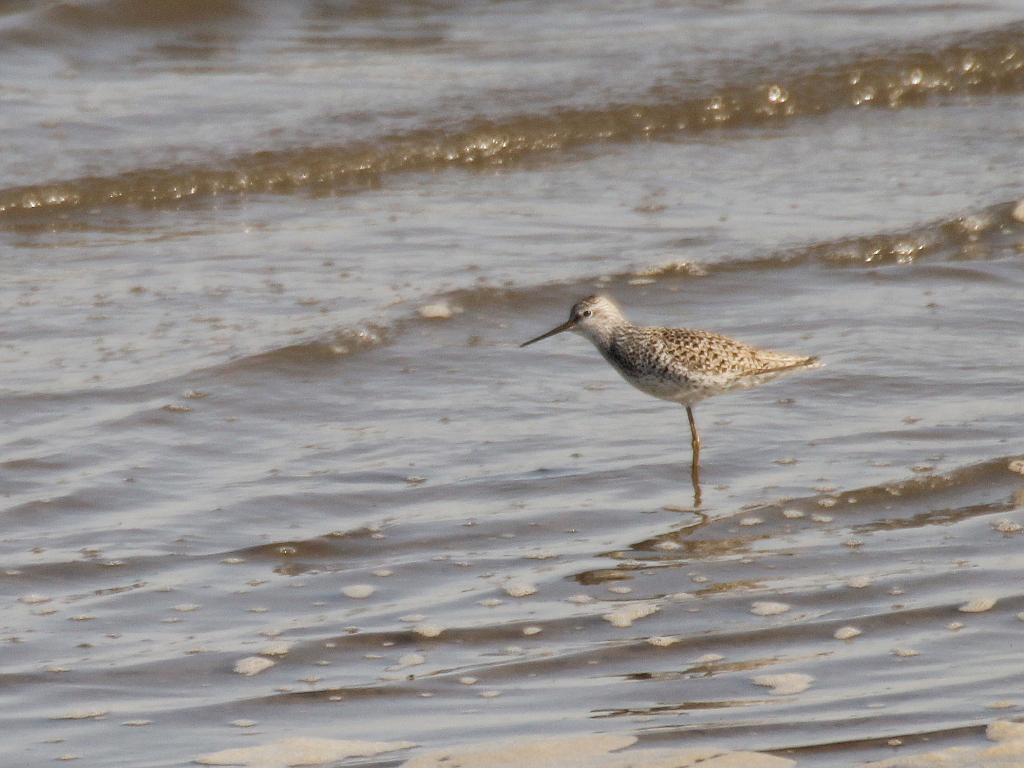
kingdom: Animalia
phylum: Chordata
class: Aves
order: Charadriiformes
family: Scolopacidae
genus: Tringa
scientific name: Tringa stagnatilis
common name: Marsh sandpiper
